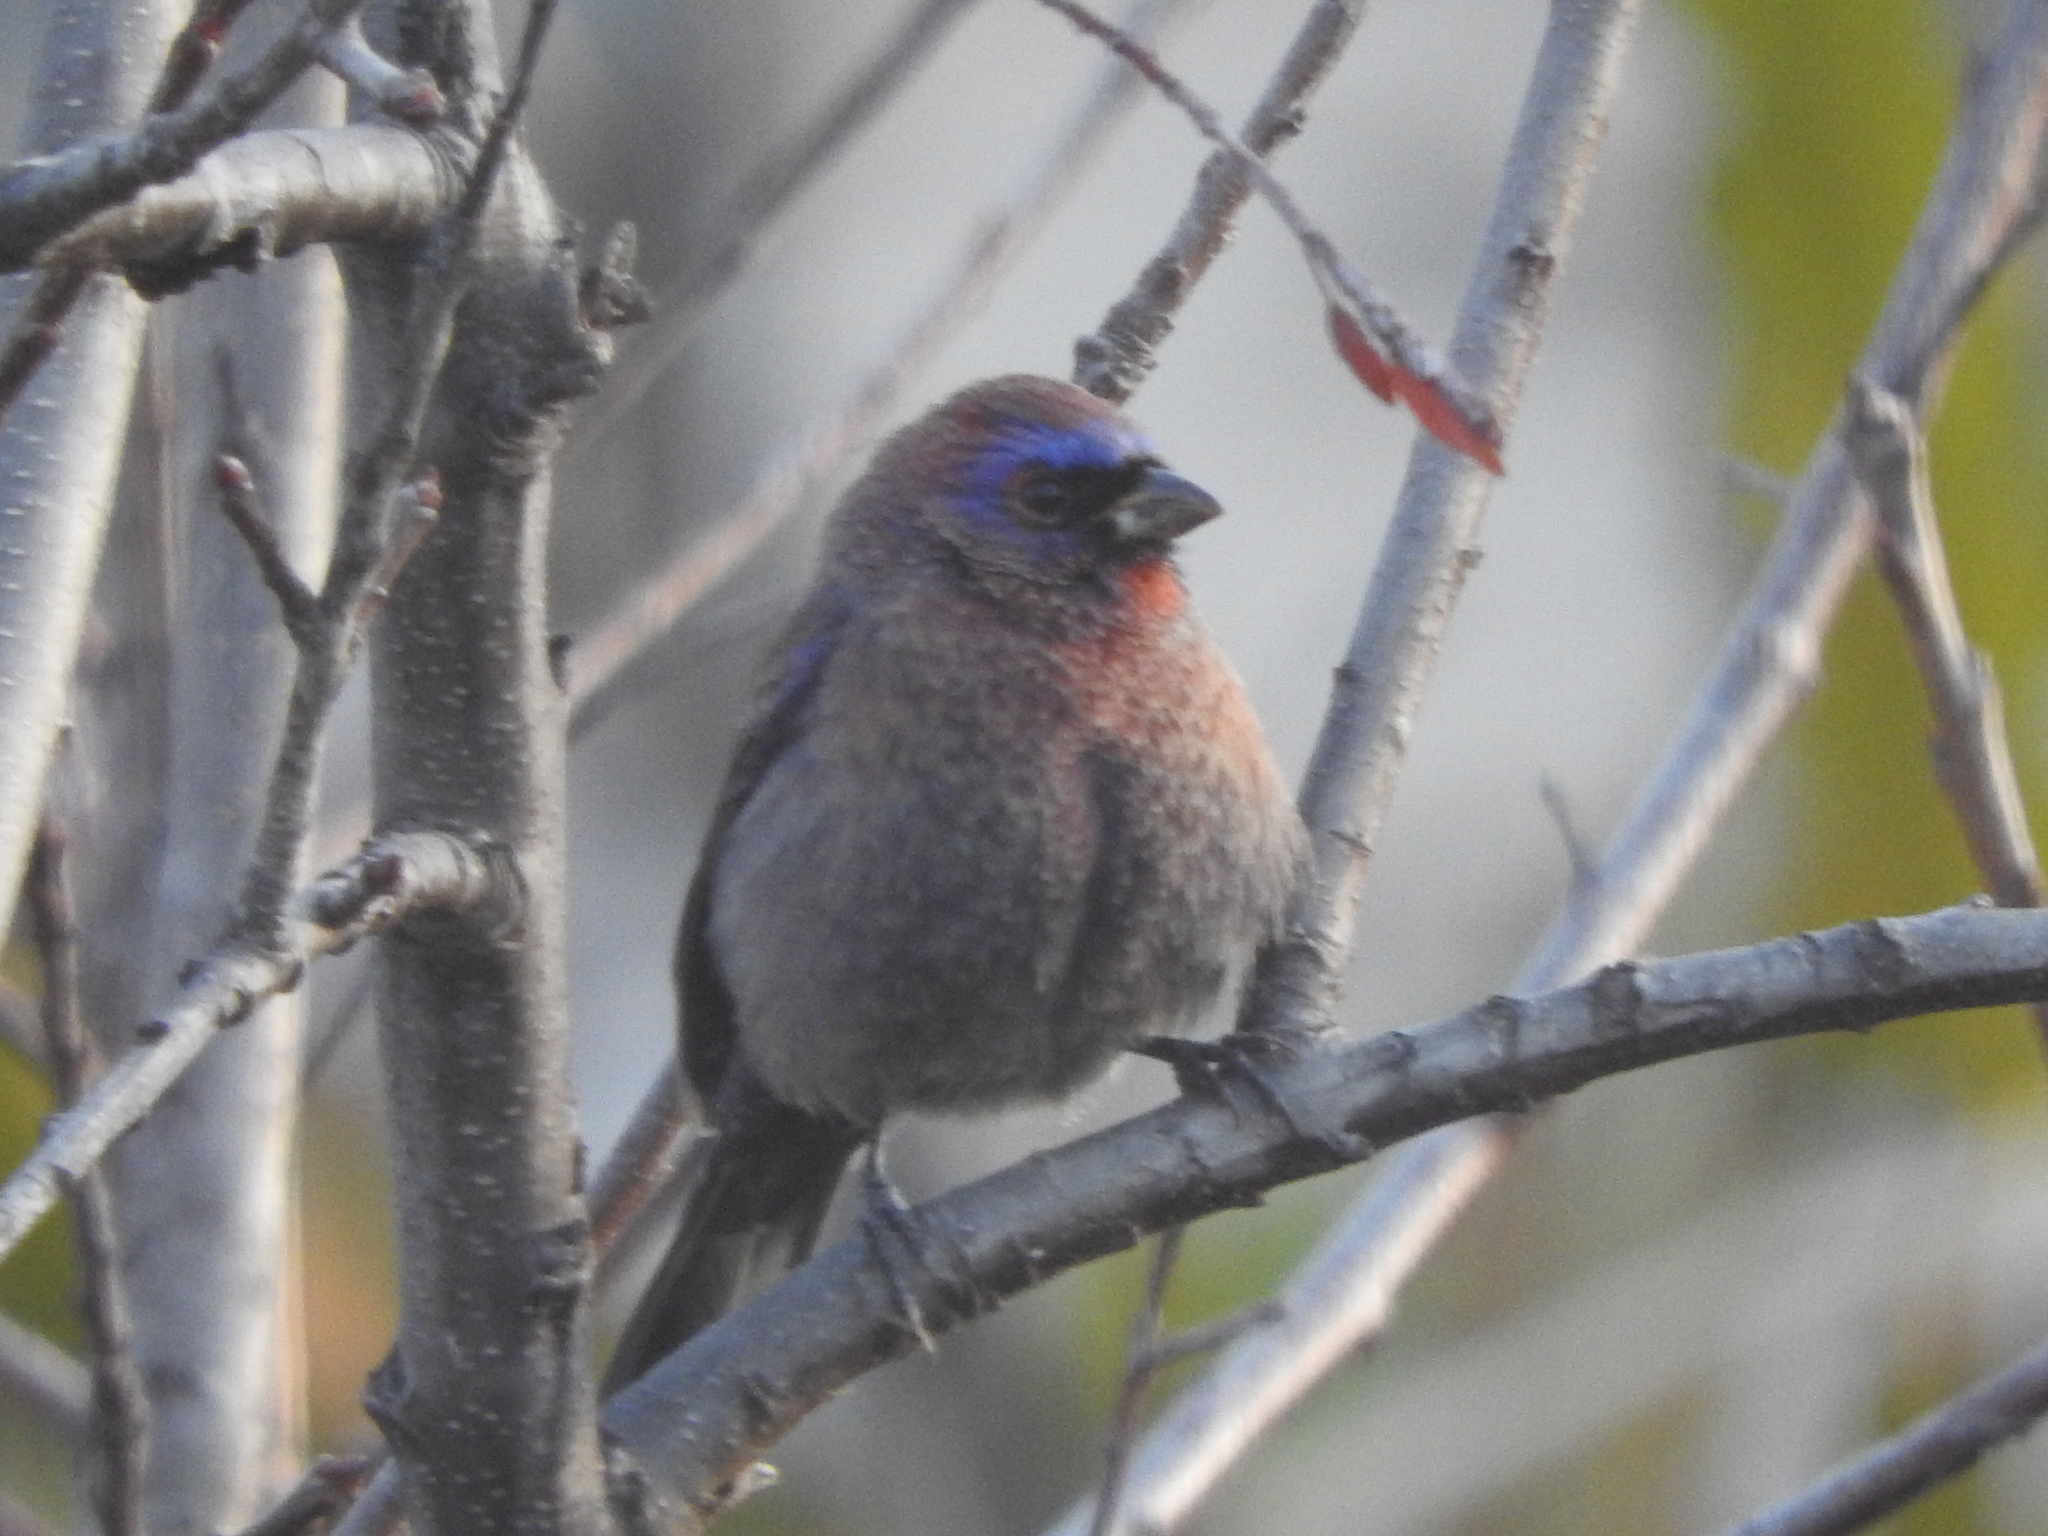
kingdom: Animalia
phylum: Chordata
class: Aves
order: Passeriformes
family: Cardinalidae
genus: Passerina
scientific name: Passerina versicolor
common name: Varied bunting
